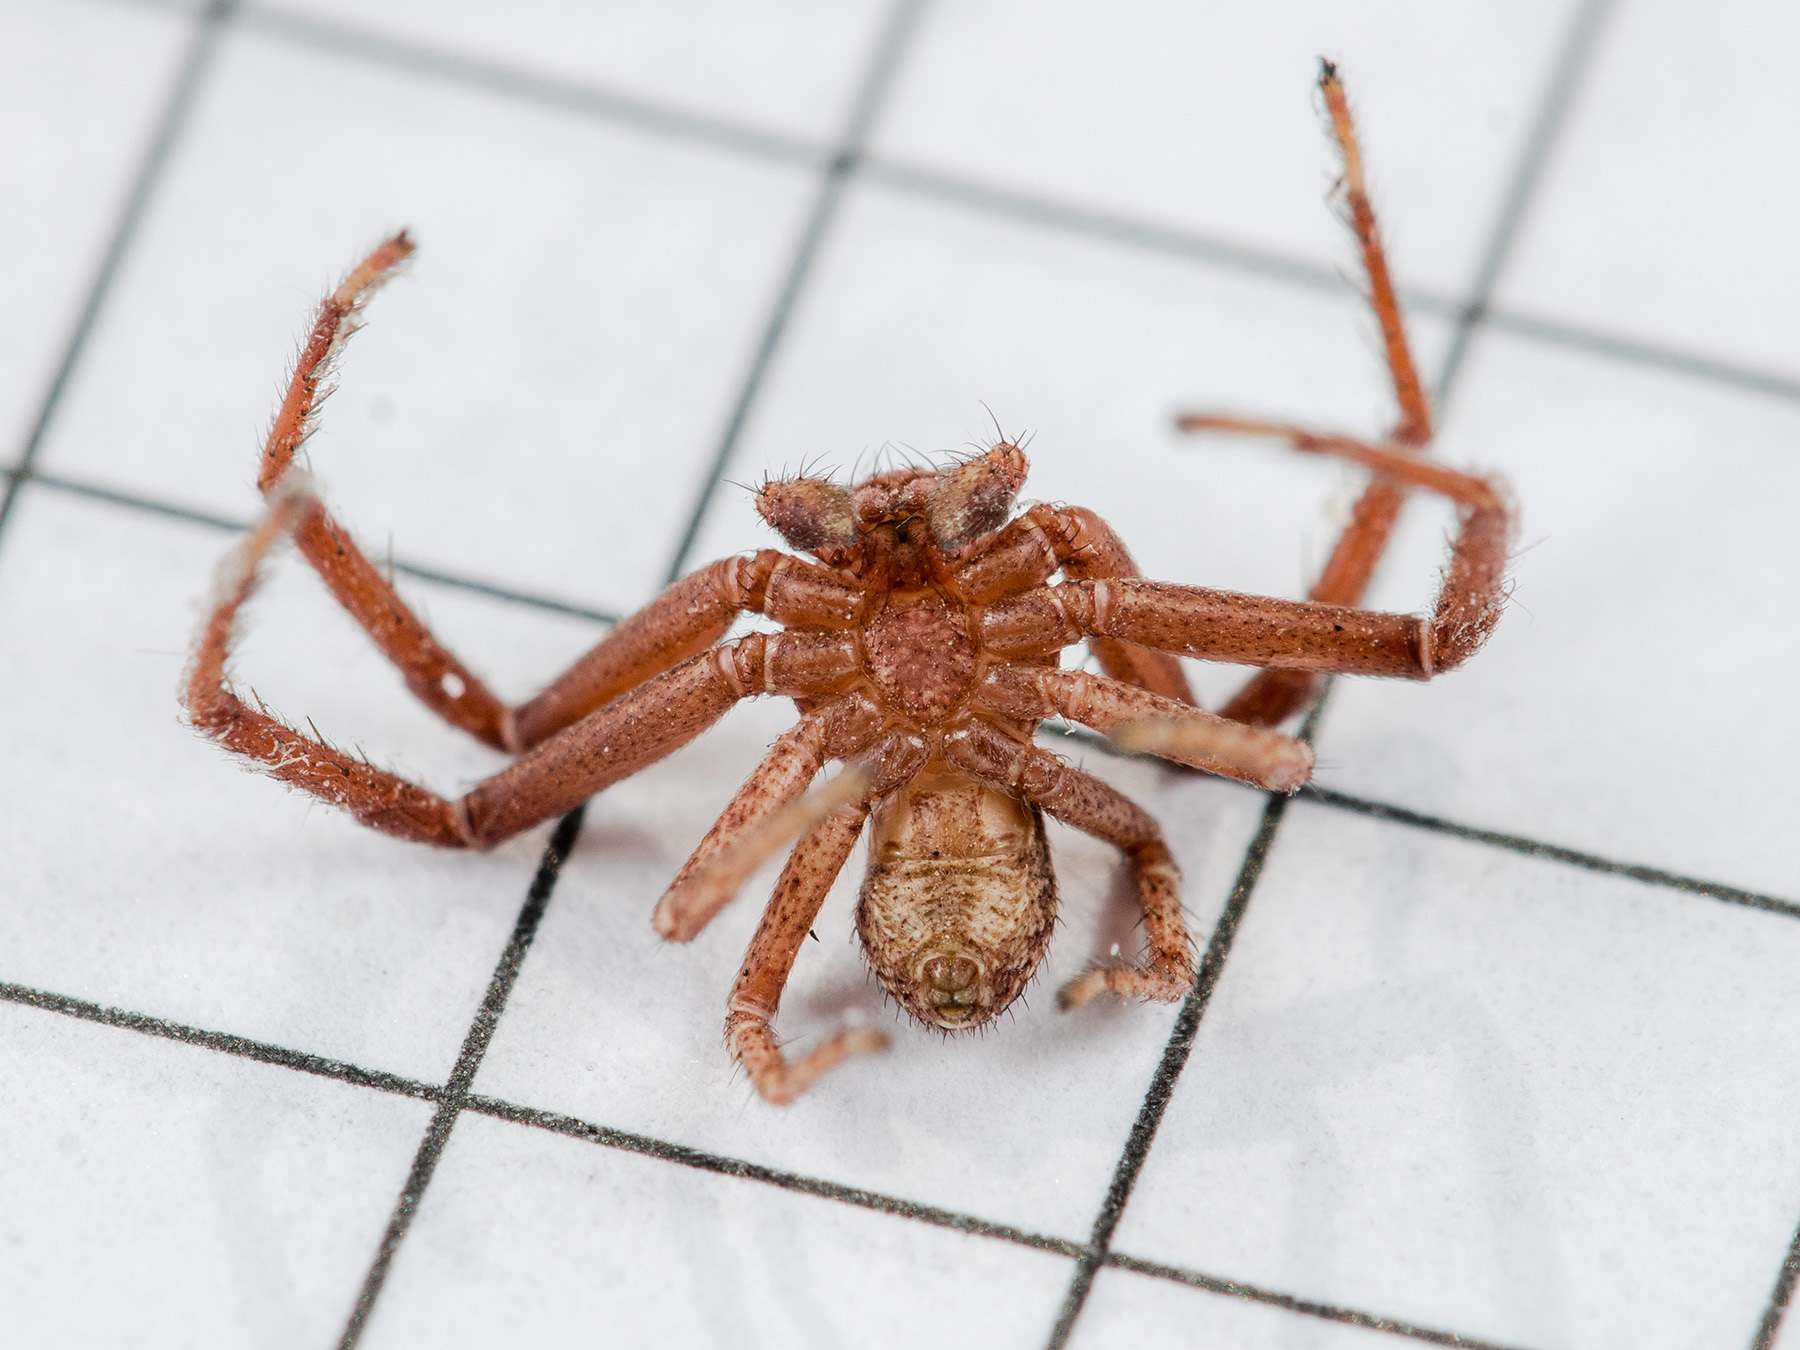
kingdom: Animalia
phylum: Arthropoda
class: Arachnida
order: Araneae
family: Thomisidae
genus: Xysticus
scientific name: Xysticus kuzgi
